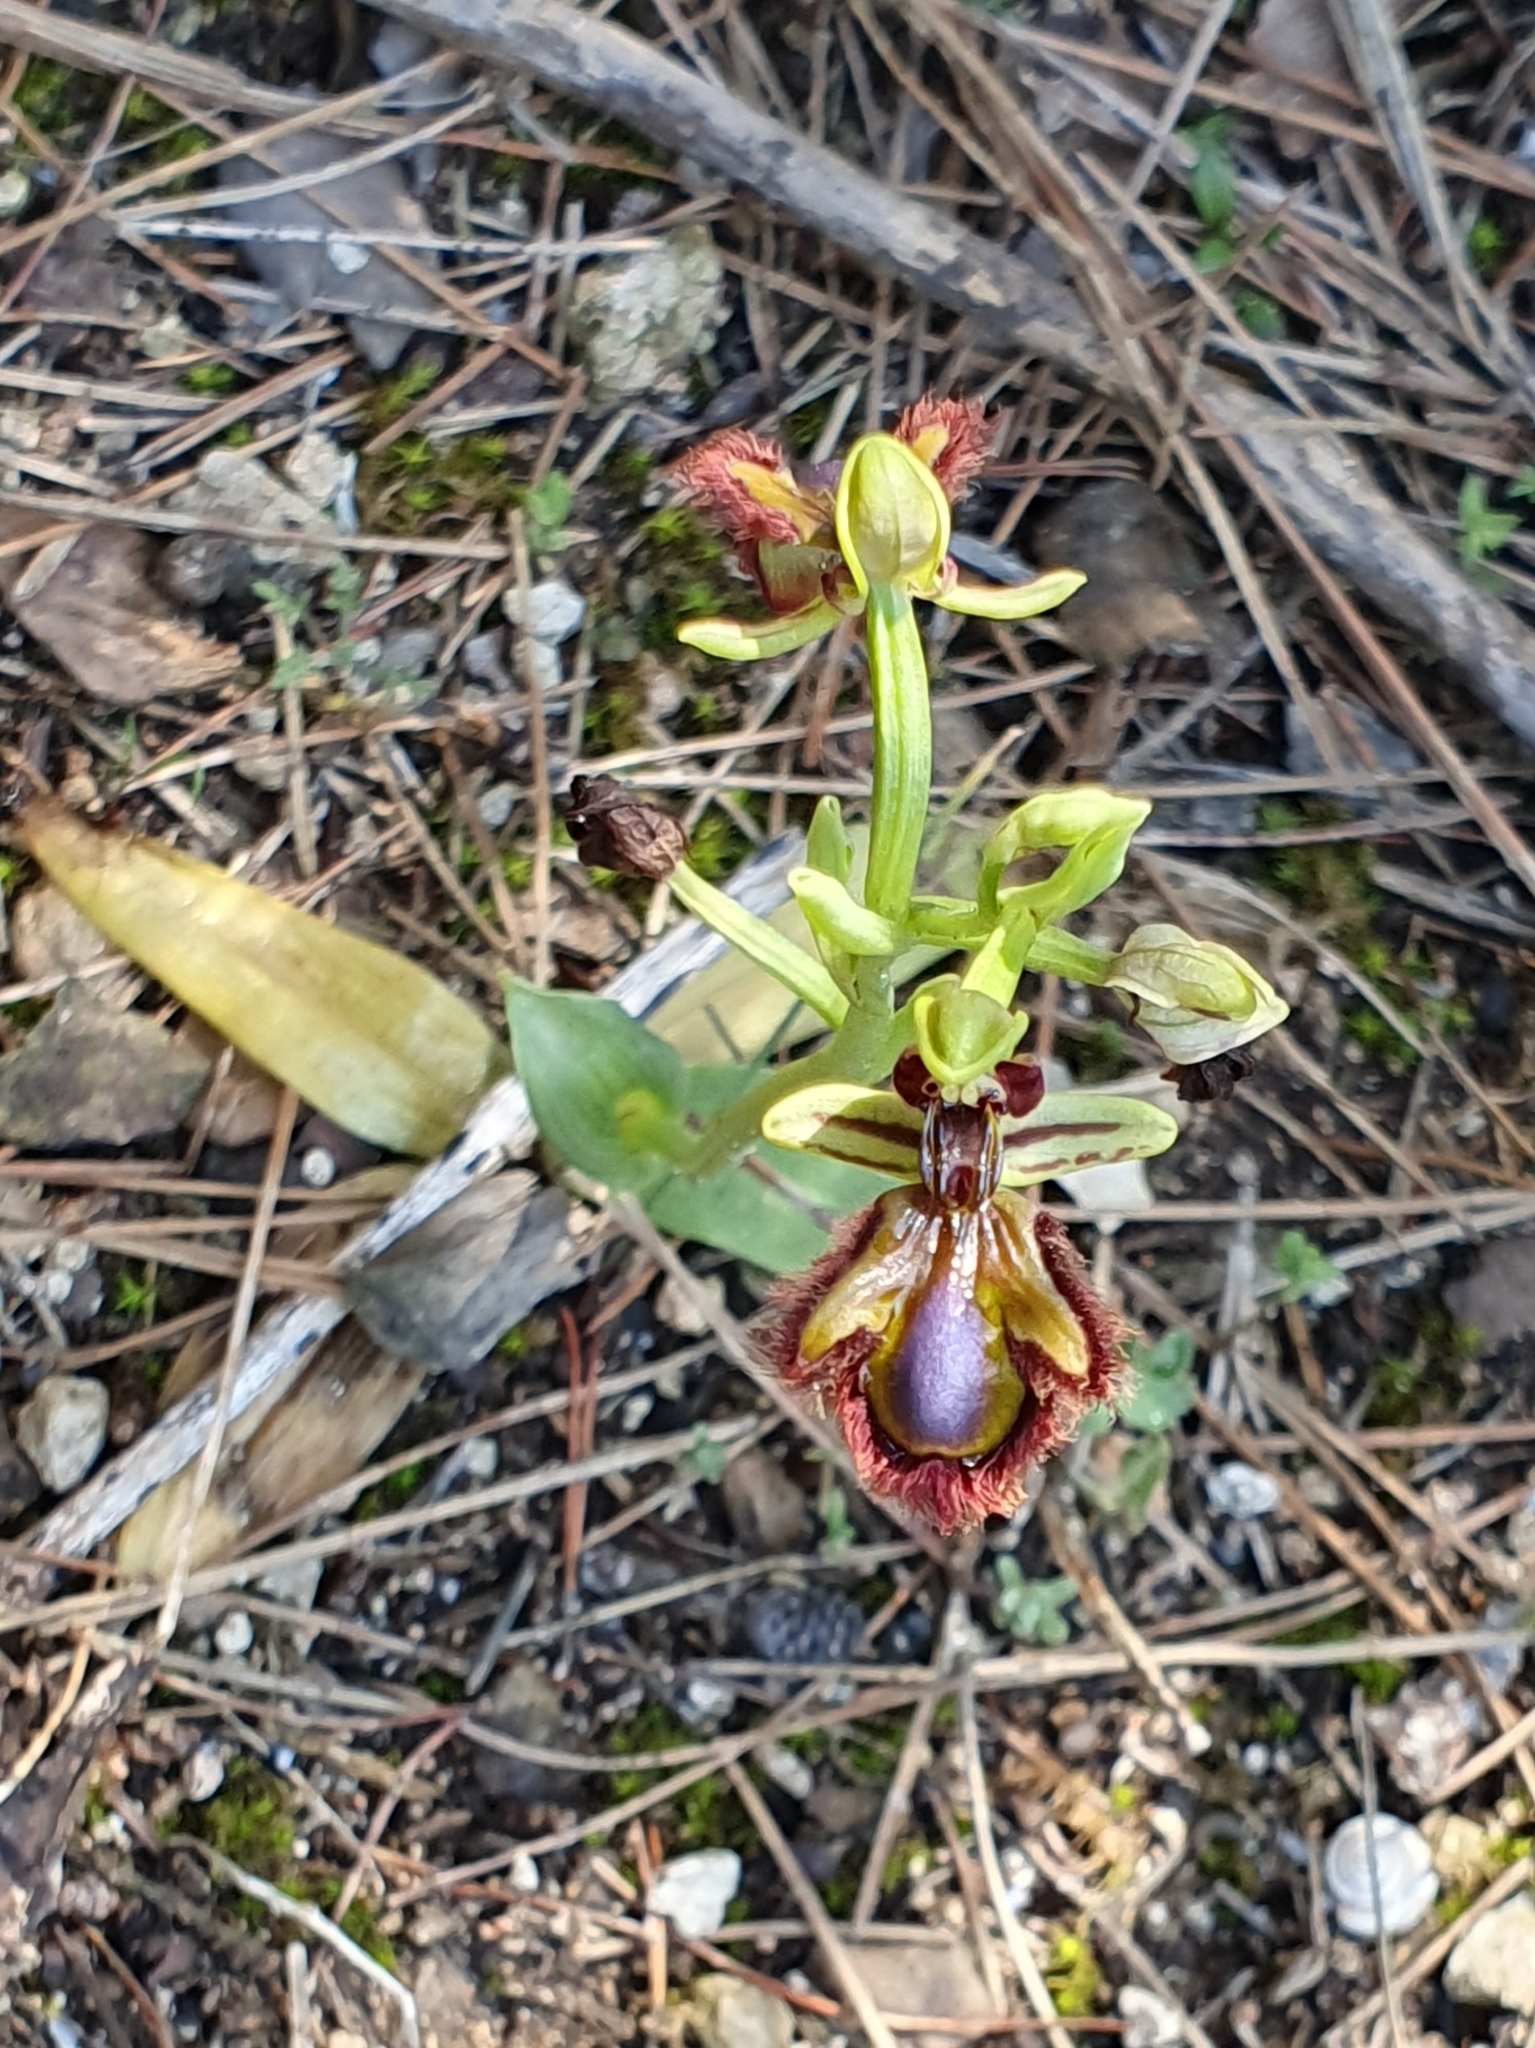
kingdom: Plantae
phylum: Tracheophyta
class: Liliopsida
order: Asparagales
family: Orchidaceae
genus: Ophrys
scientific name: Ophrys speculum
